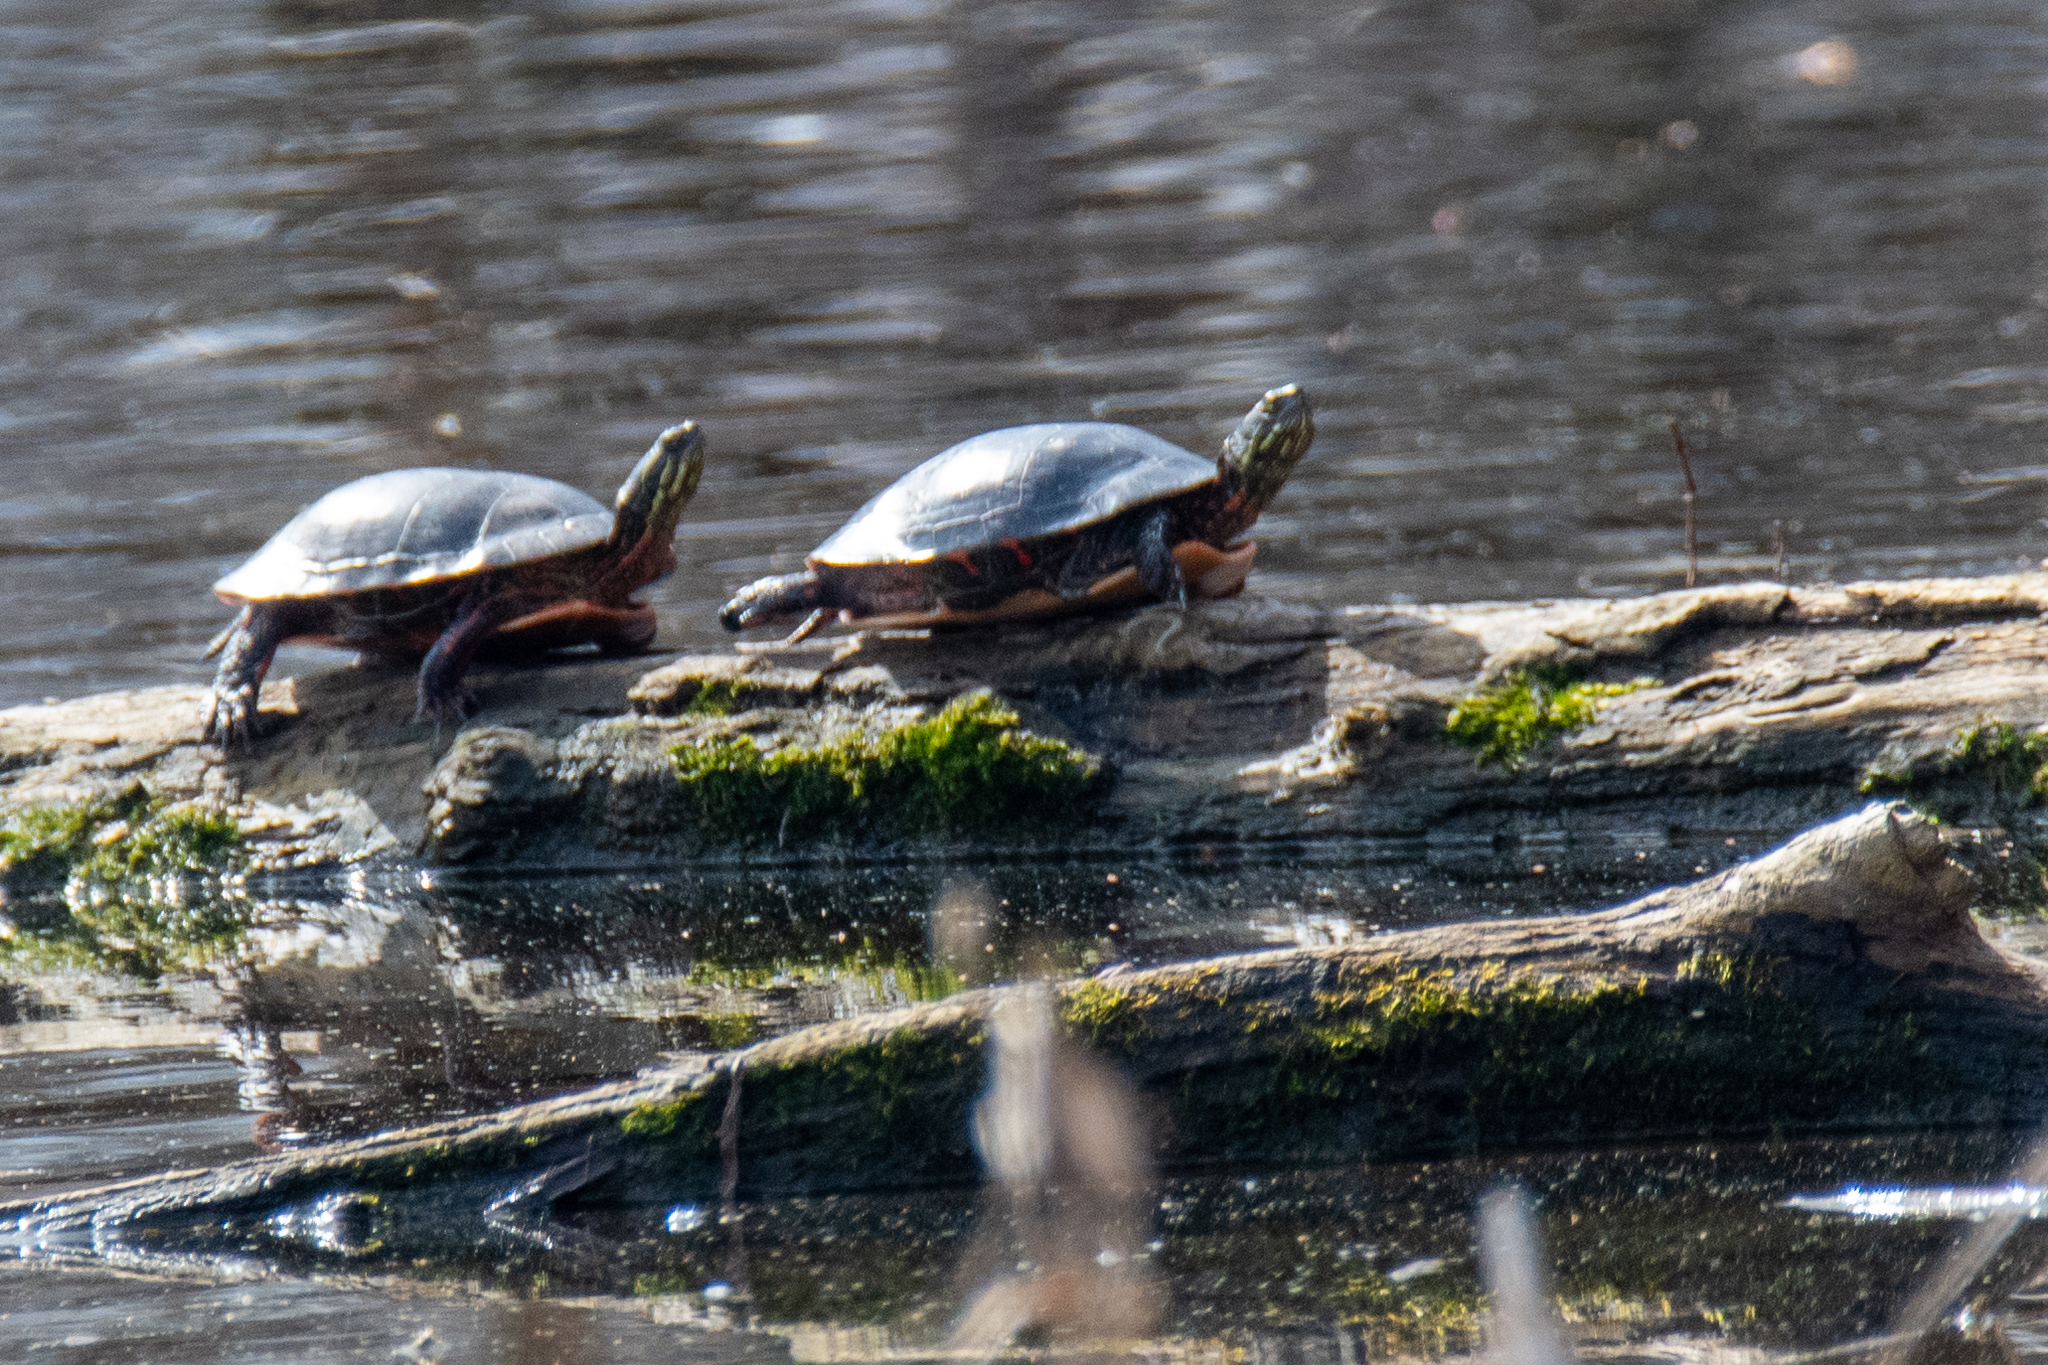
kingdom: Animalia
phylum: Chordata
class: Testudines
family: Emydidae
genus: Chrysemys
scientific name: Chrysemys picta
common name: Painted turtle
